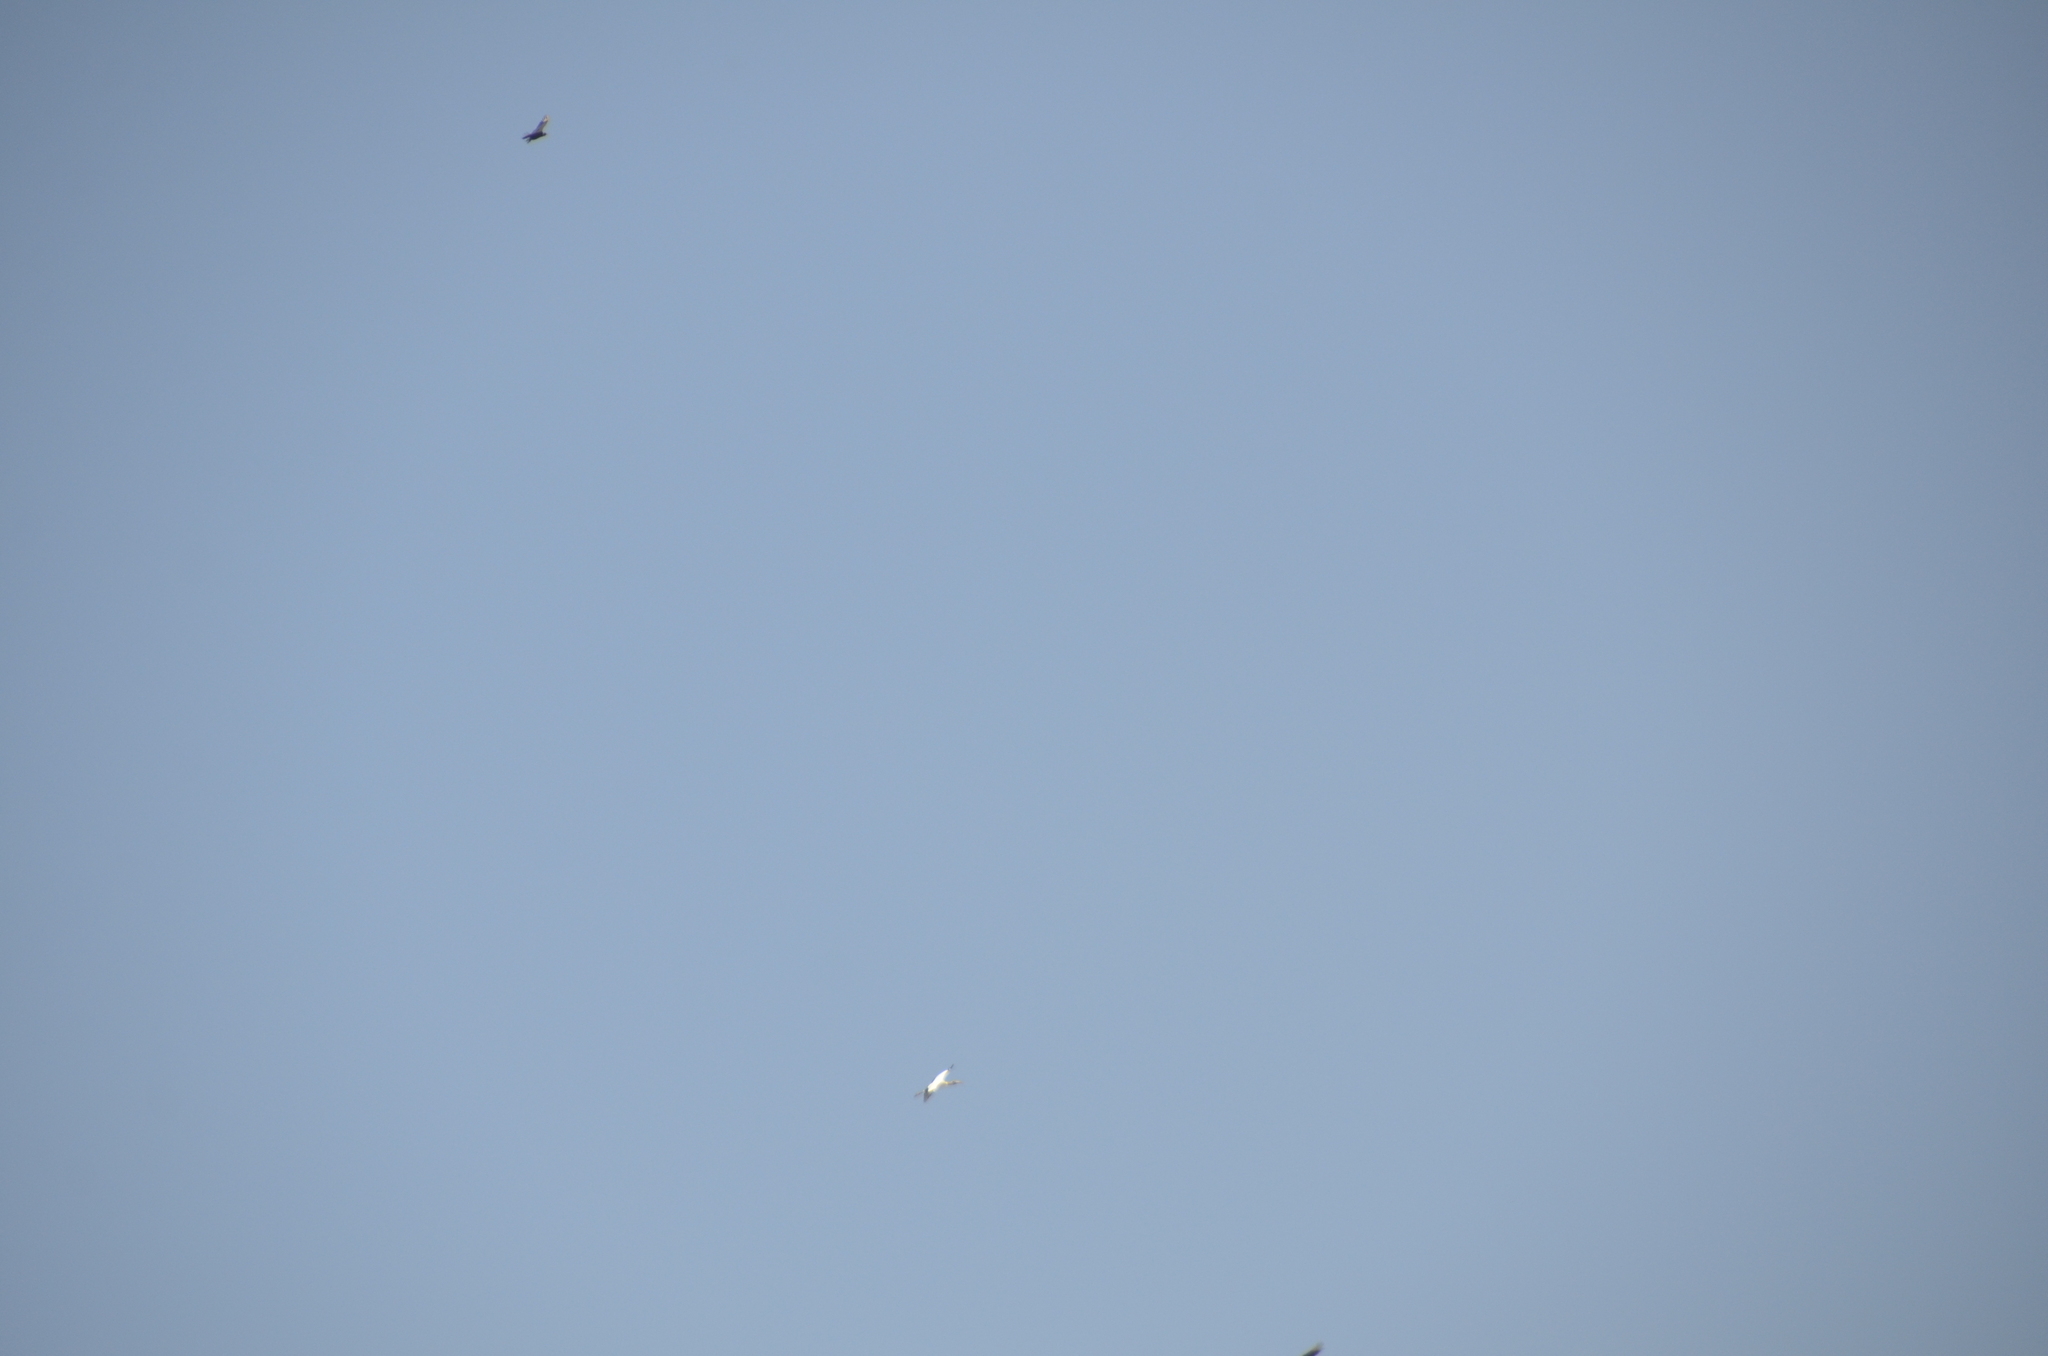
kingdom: Animalia
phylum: Chordata
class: Aves
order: Ciconiiformes
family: Ciconiidae
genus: Mycteria
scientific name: Mycteria americana
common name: Wood stork
